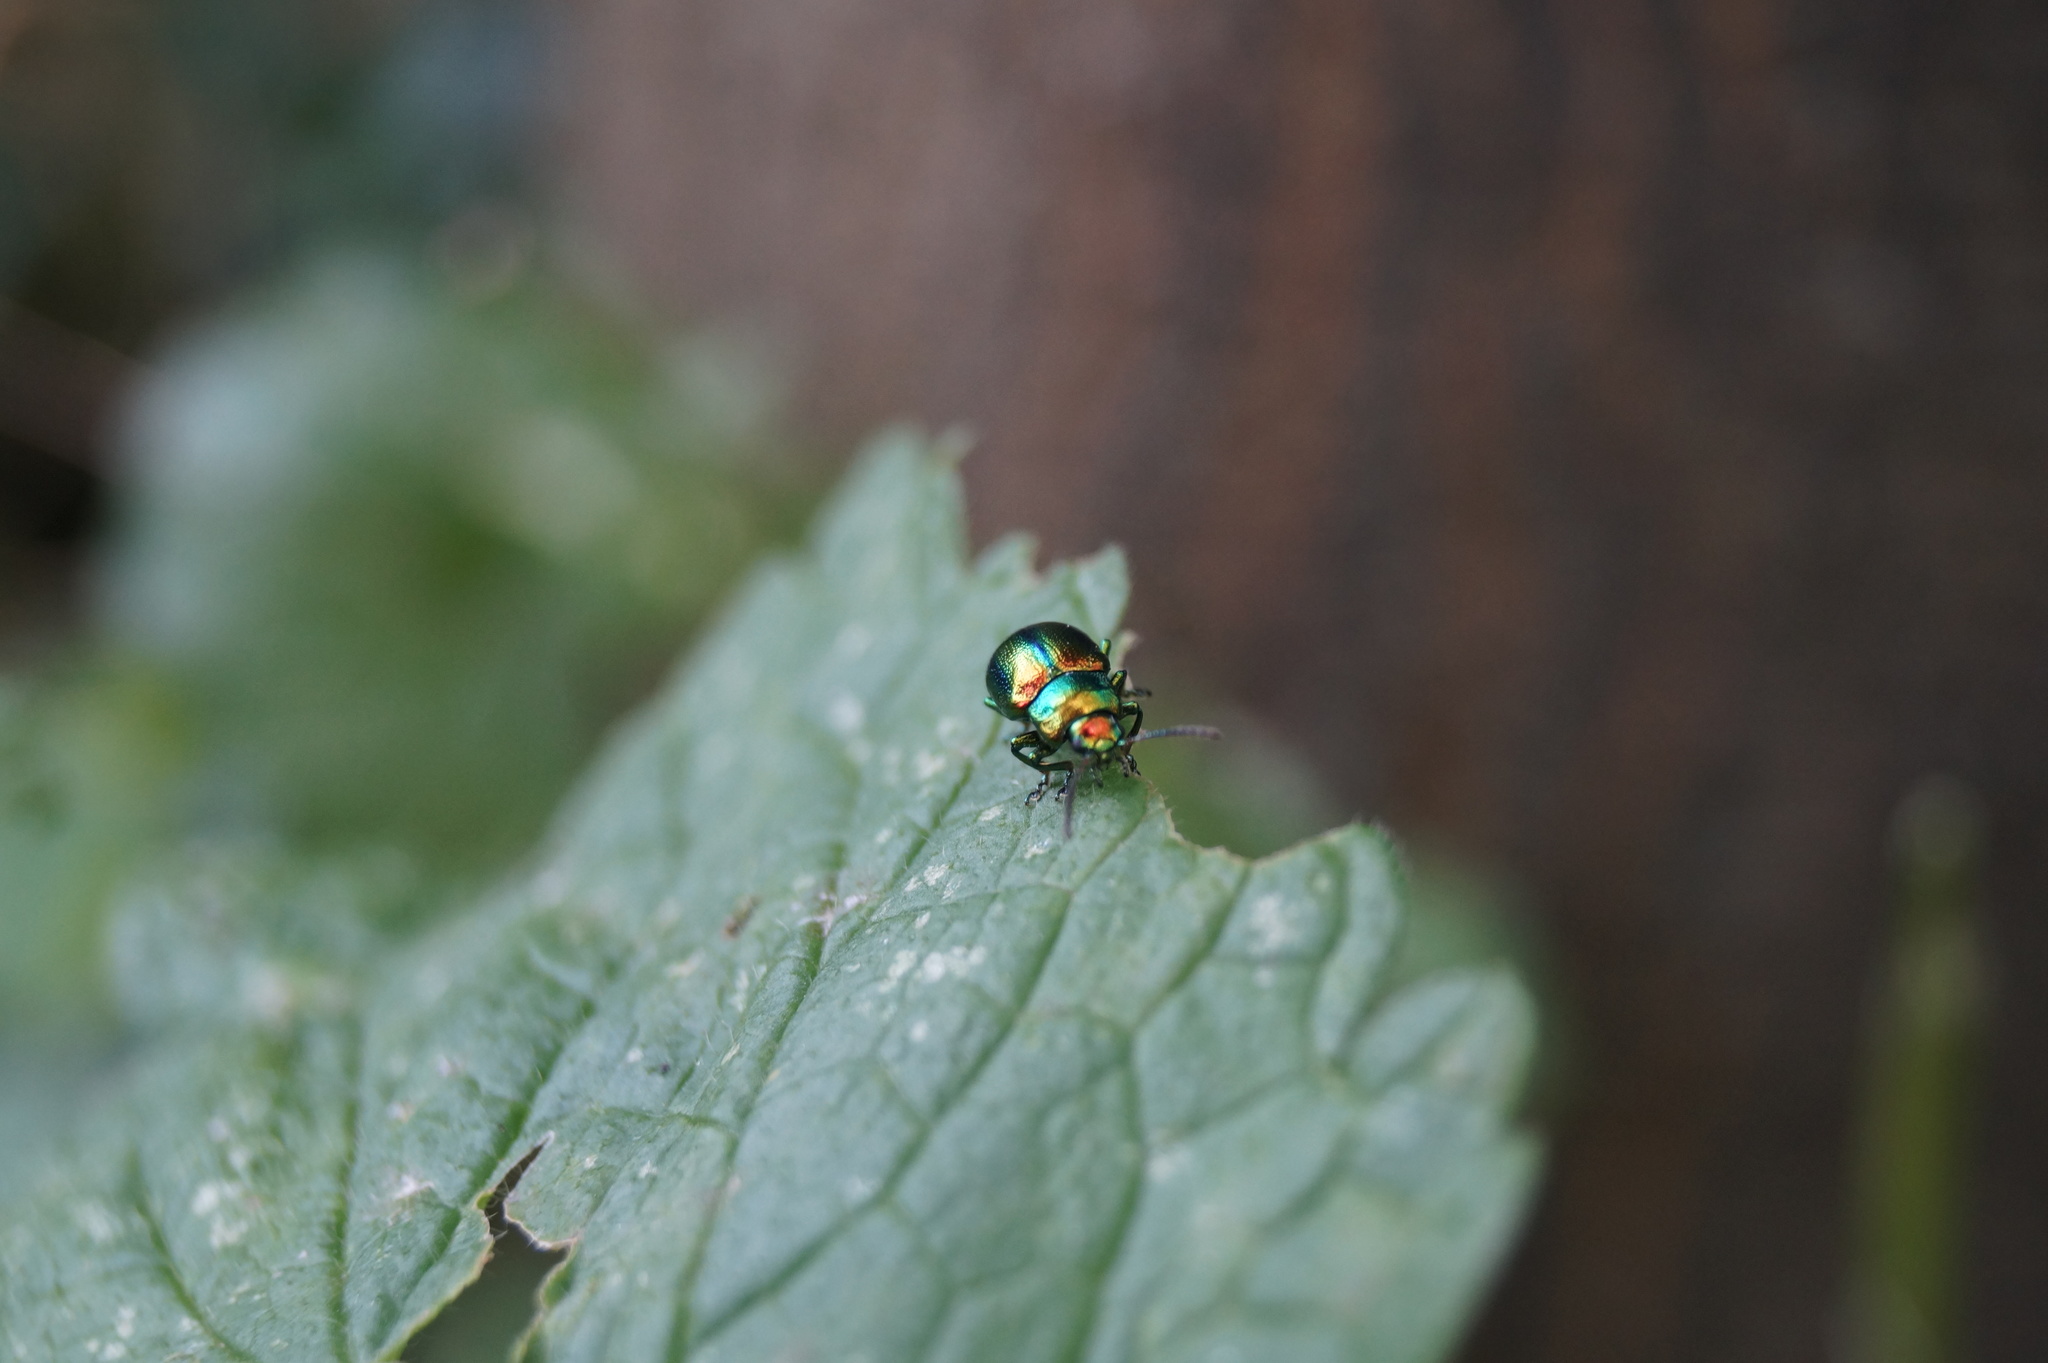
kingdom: Animalia
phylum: Arthropoda
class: Insecta
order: Coleoptera
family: Chrysomelidae
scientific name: Chrysomelidae
